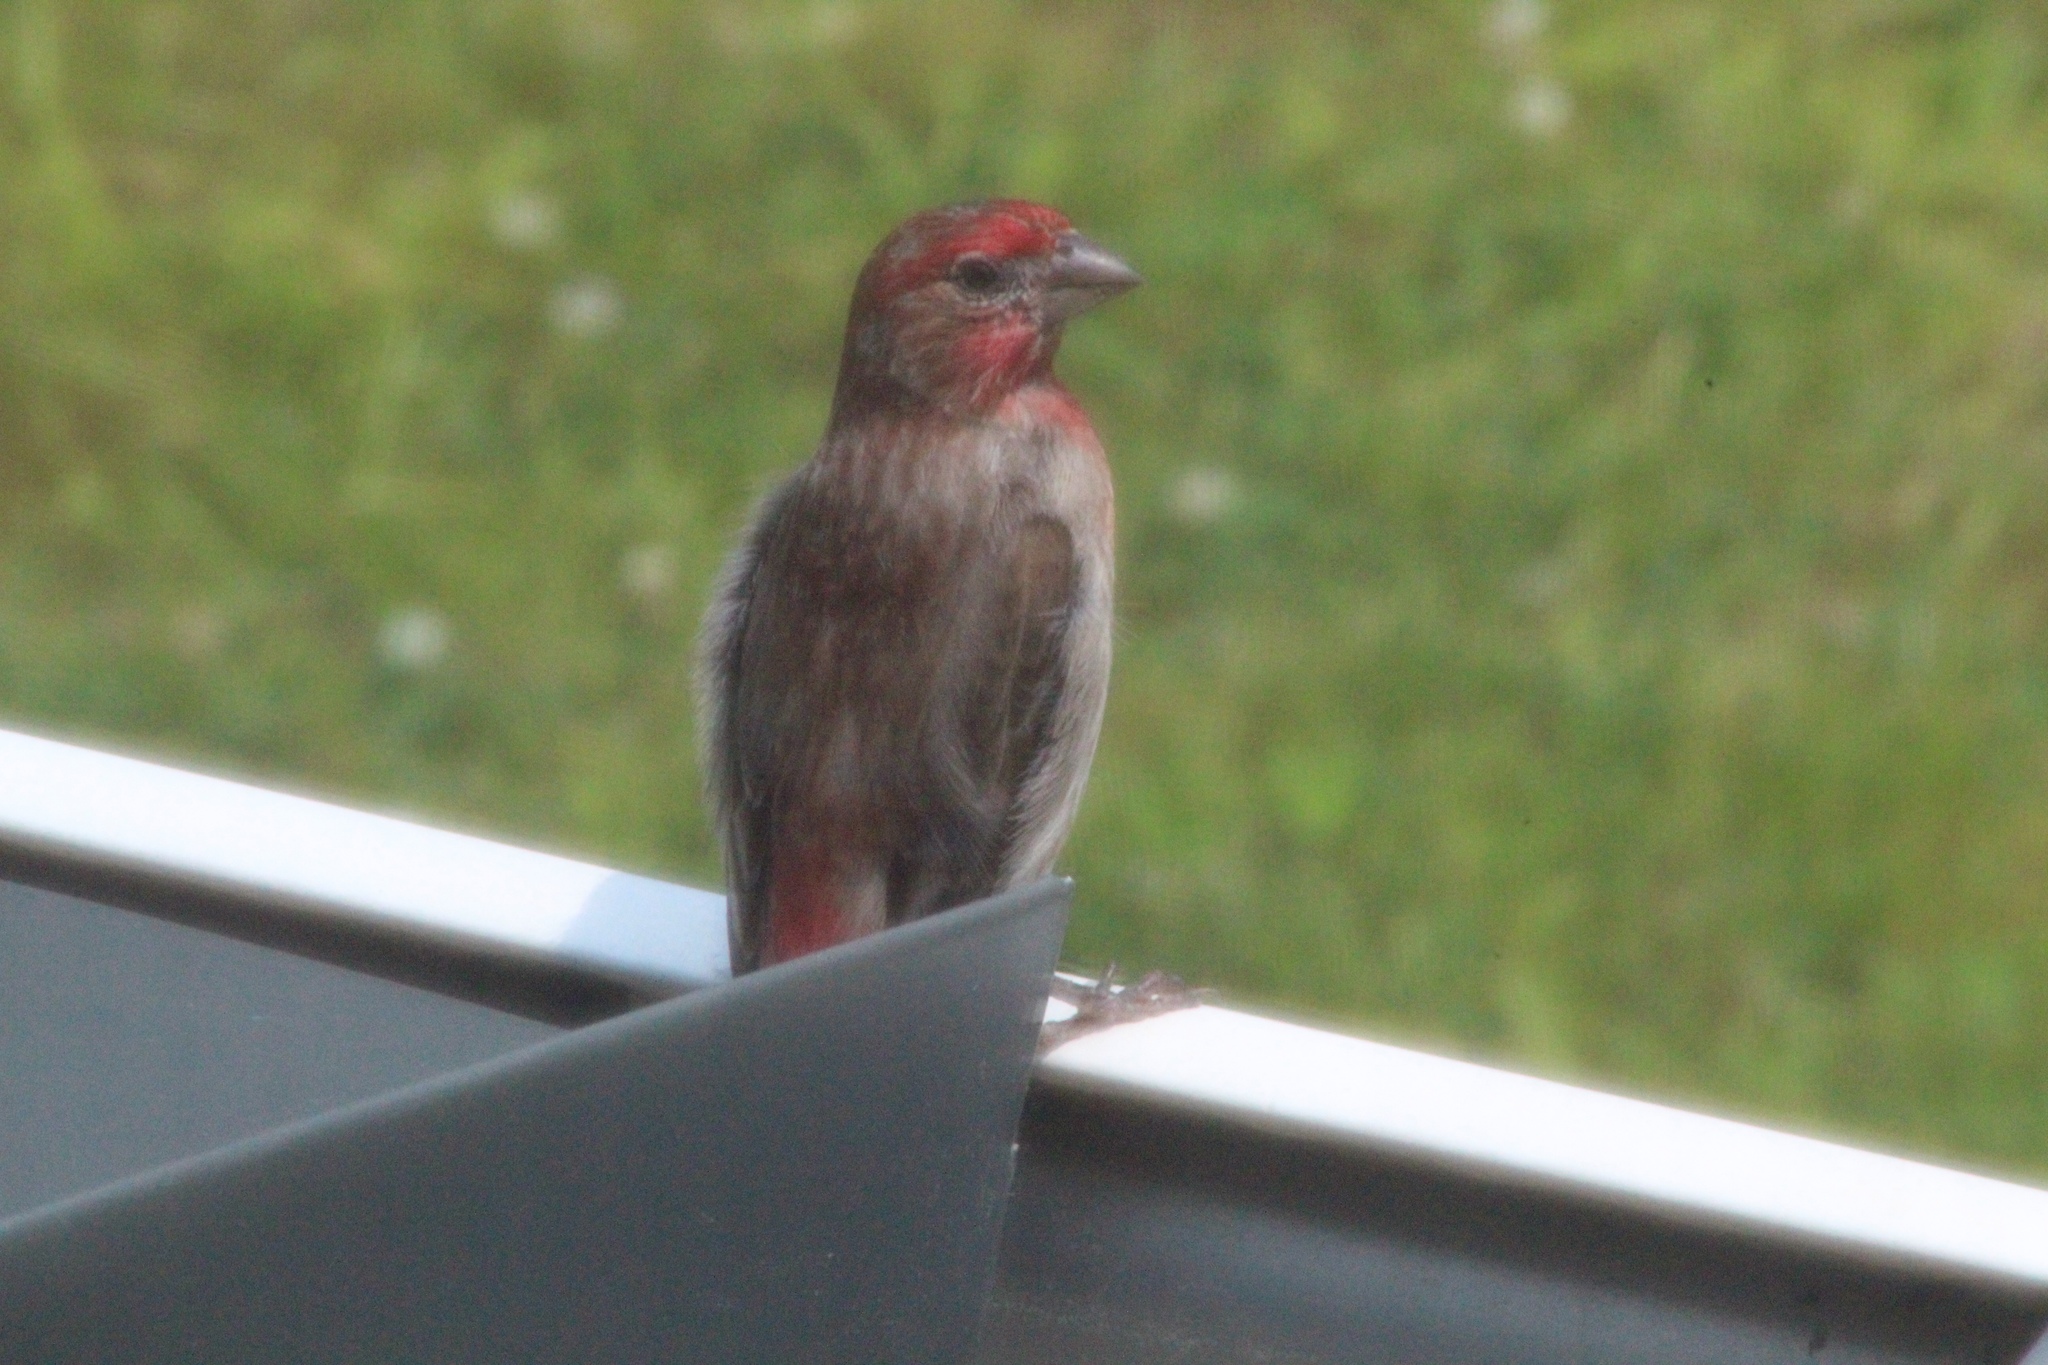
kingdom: Animalia
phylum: Chordata
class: Aves
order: Passeriformes
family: Fringillidae
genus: Haemorhous
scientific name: Haemorhous mexicanus
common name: House finch
